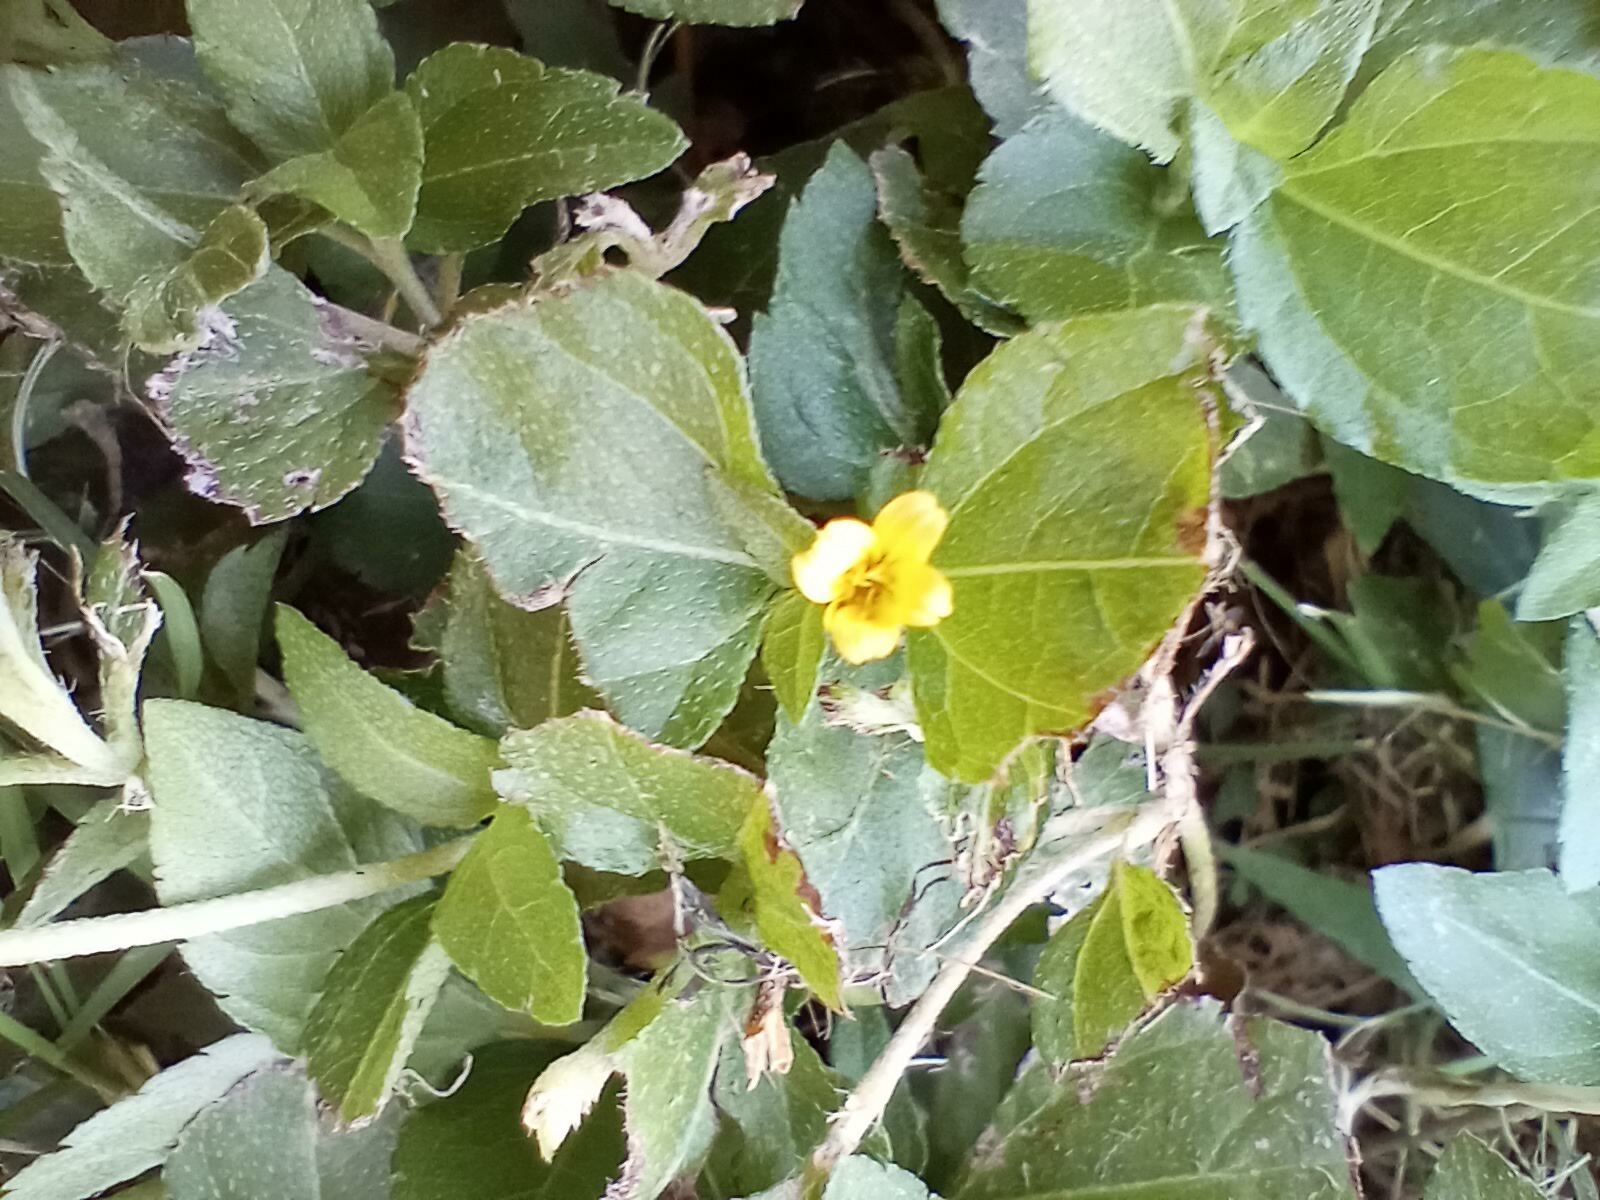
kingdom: Plantae
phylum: Tracheophyta
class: Magnoliopsida
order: Asterales
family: Asteraceae
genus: Calyptocarpus
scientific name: Calyptocarpus vialis
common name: Straggler daisy
